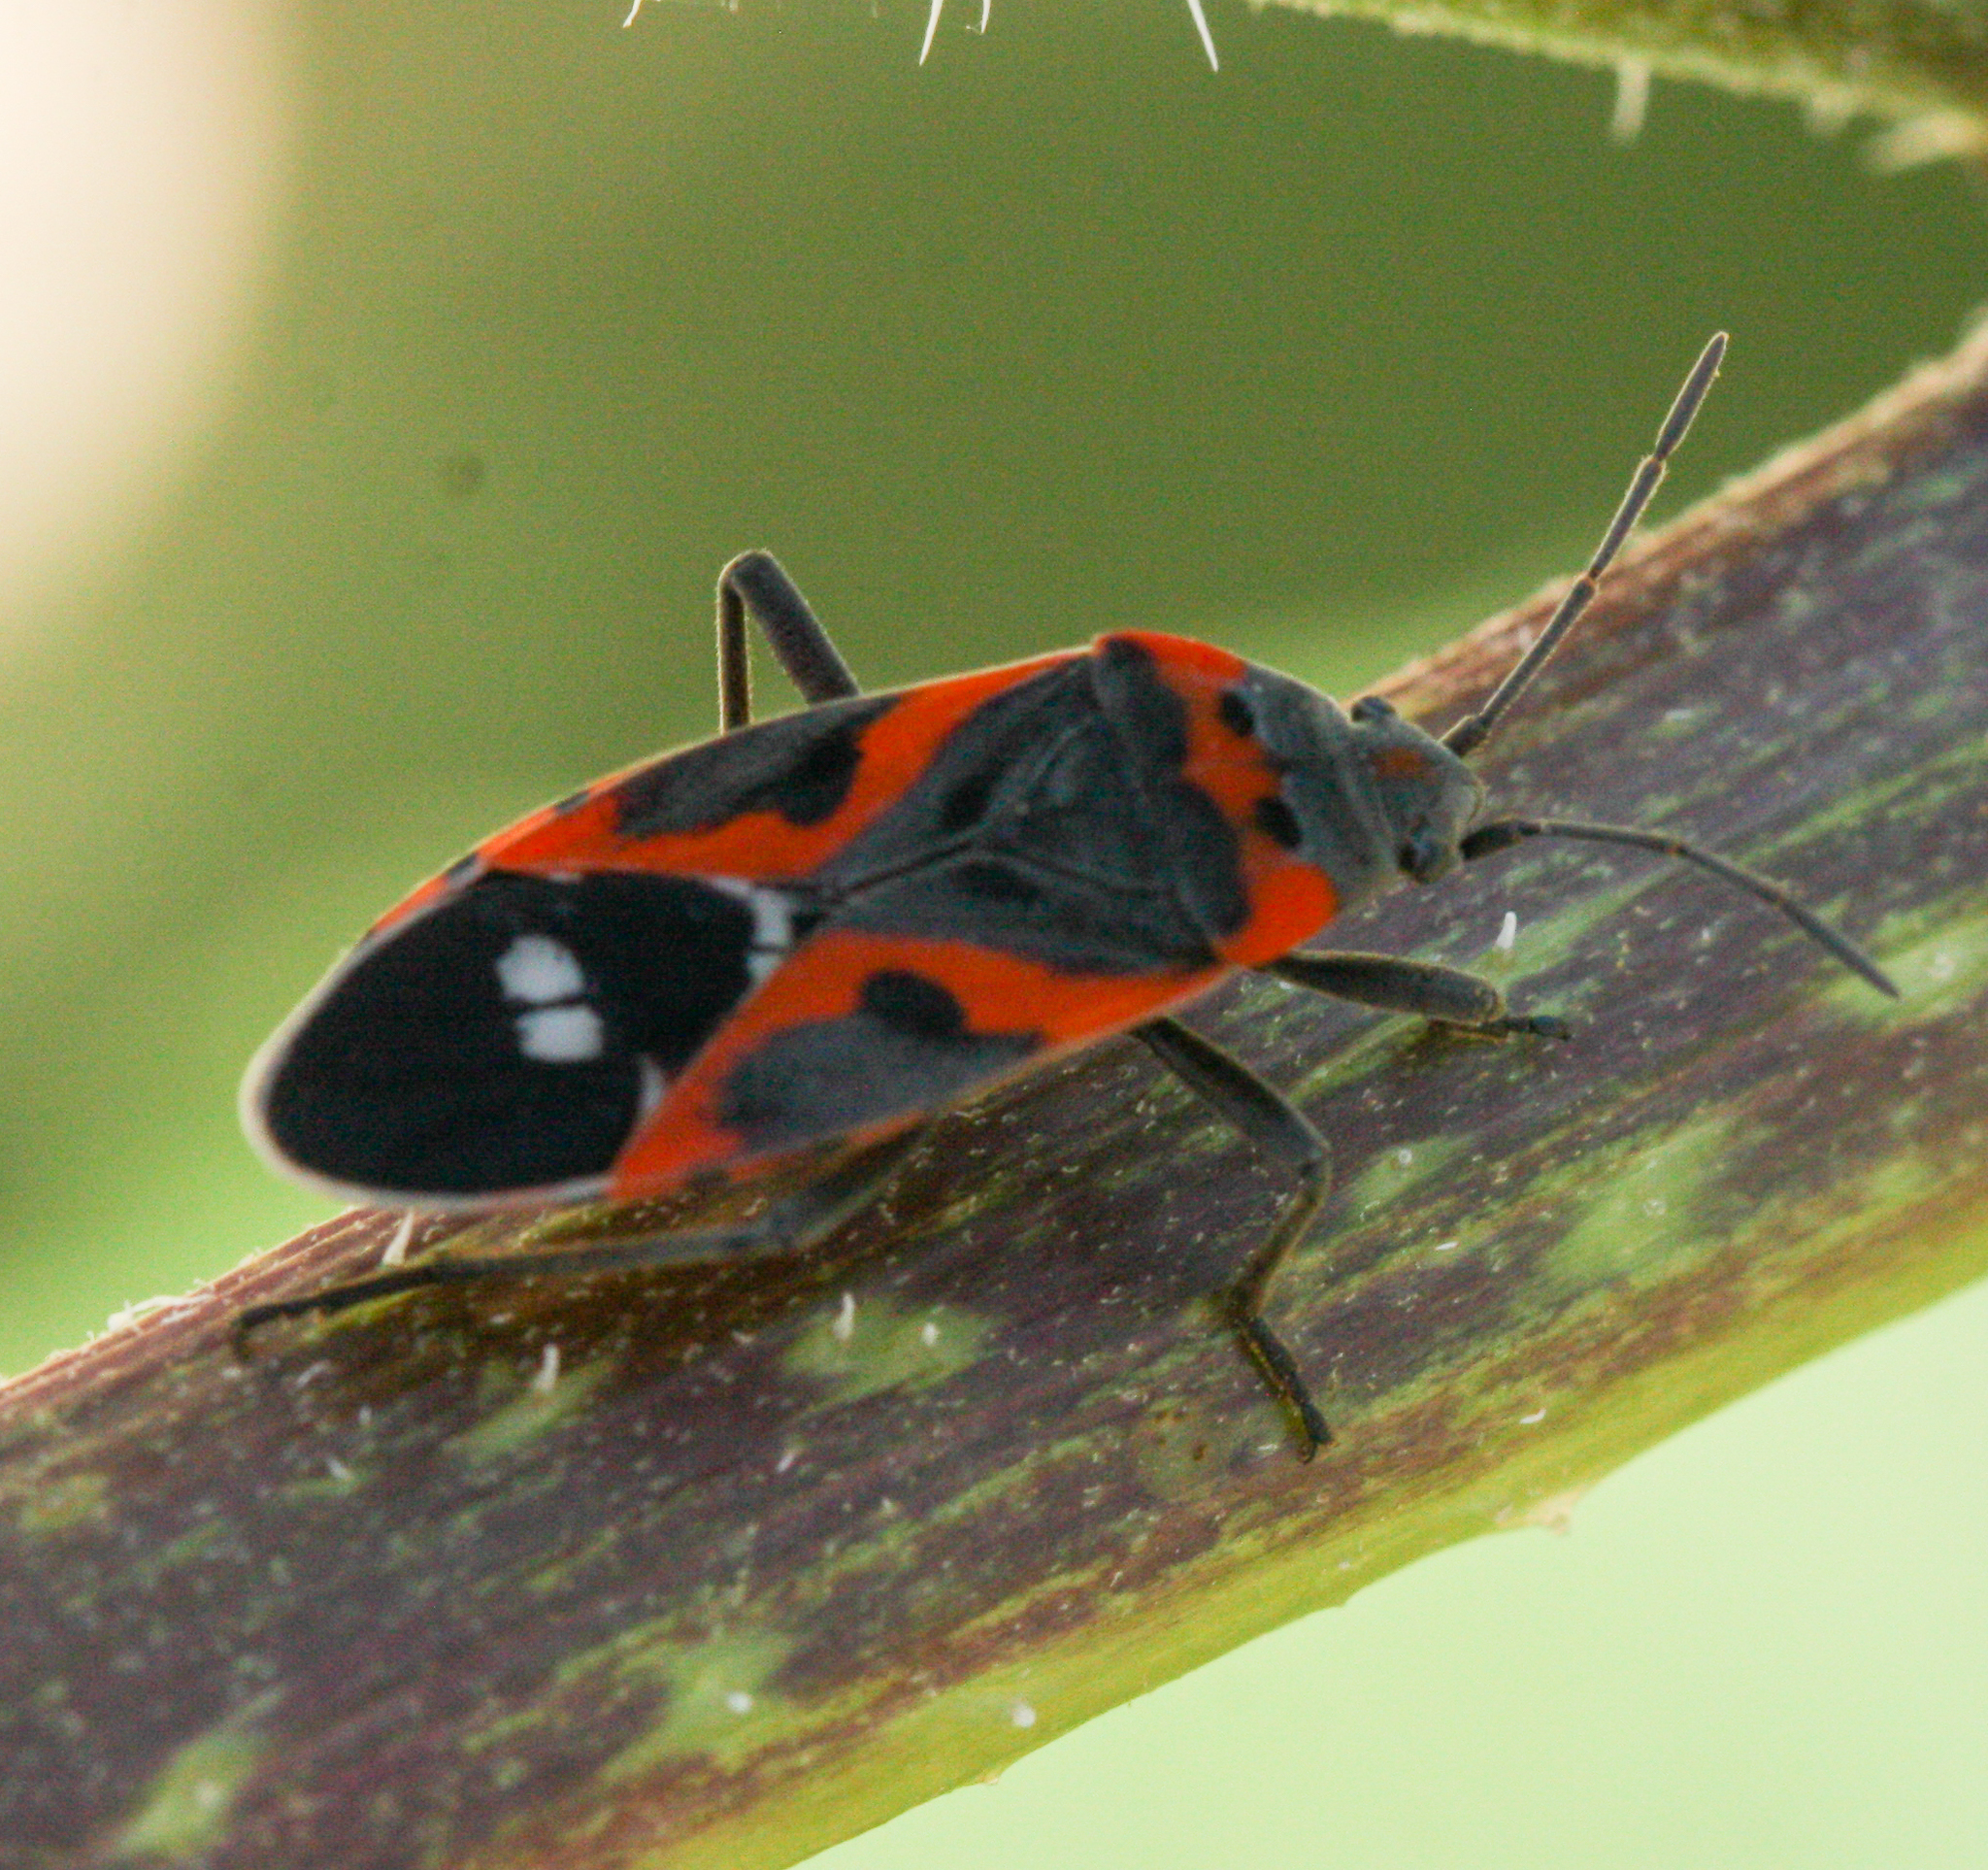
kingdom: Animalia
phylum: Arthropoda
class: Insecta
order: Hemiptera
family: Lygaeidae
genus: Lygaeus
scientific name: Lygaeus kalmii
